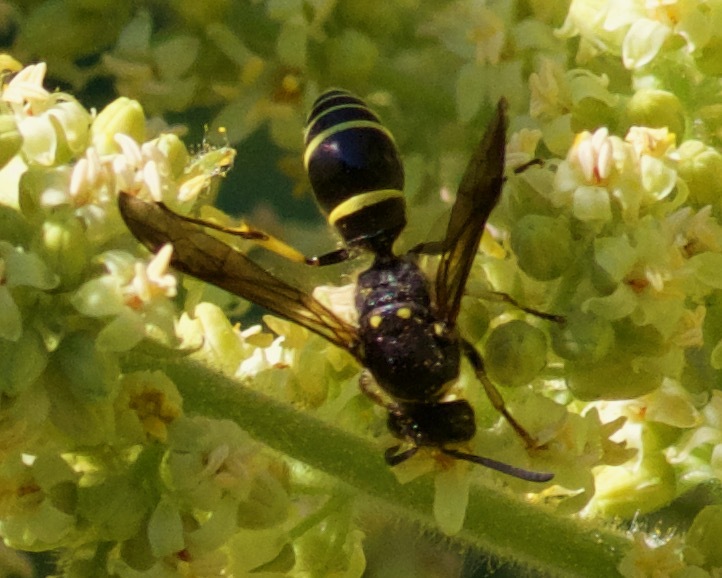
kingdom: Animalia
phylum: Arthropoda
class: Insecta
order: Hymenoptera
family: Vespidae
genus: Ancistrocerus
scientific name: Ancistrocerus
